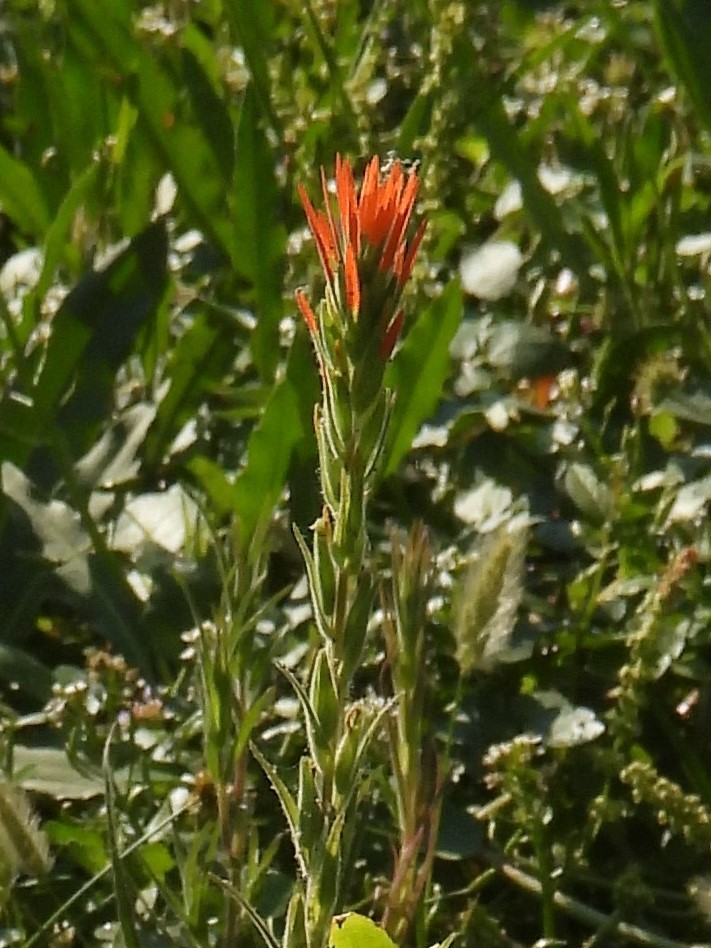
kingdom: Plantae
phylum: Tracheophyta
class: Magnoliopsida
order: Lamiales
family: Orobanchaceae
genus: Castilleja
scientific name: Castilleja minor
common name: Seep paintbrush
